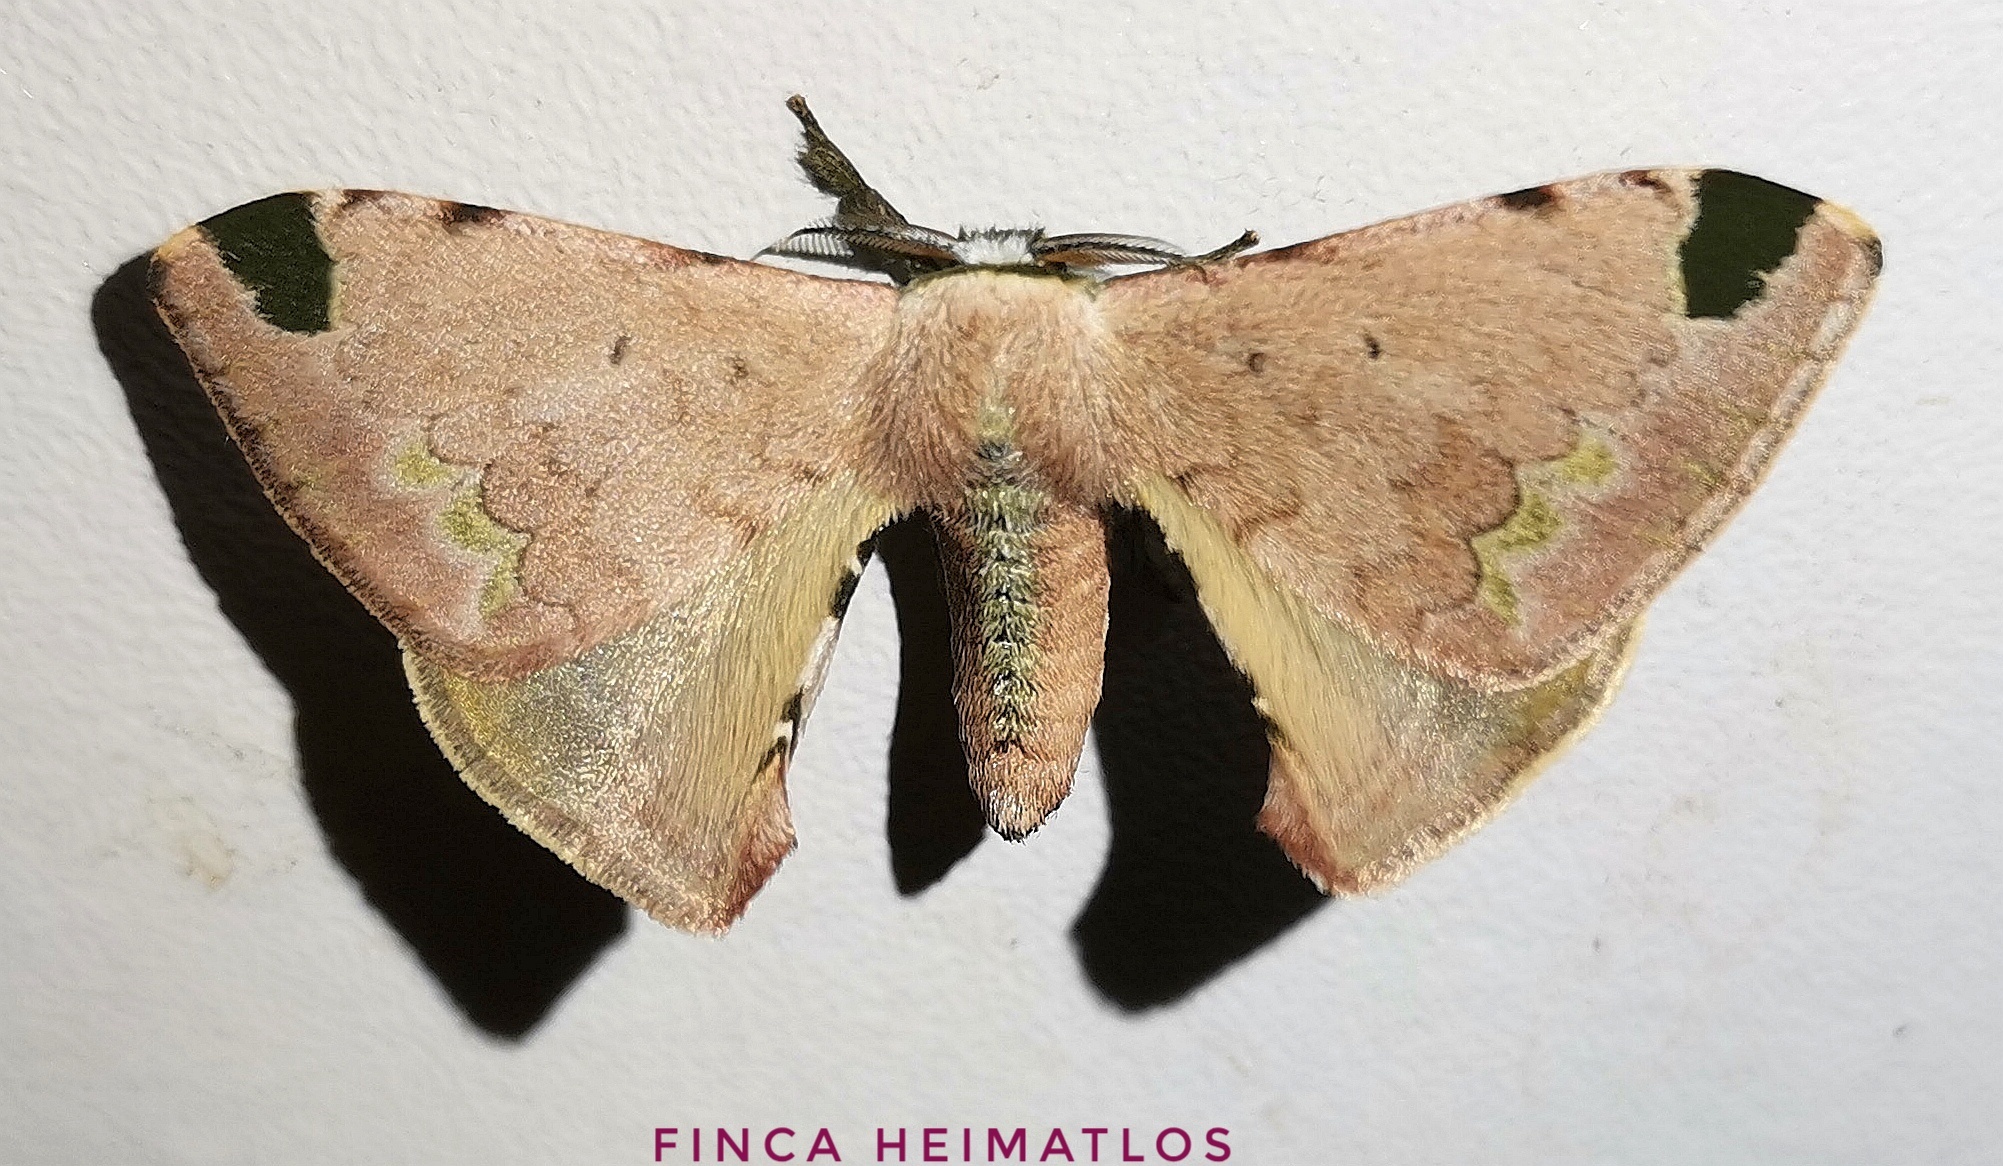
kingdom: Animalia
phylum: Arthropoda
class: Insecta
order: Lepidoptera
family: Bombycidae
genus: Anticla
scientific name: Anticla antica
